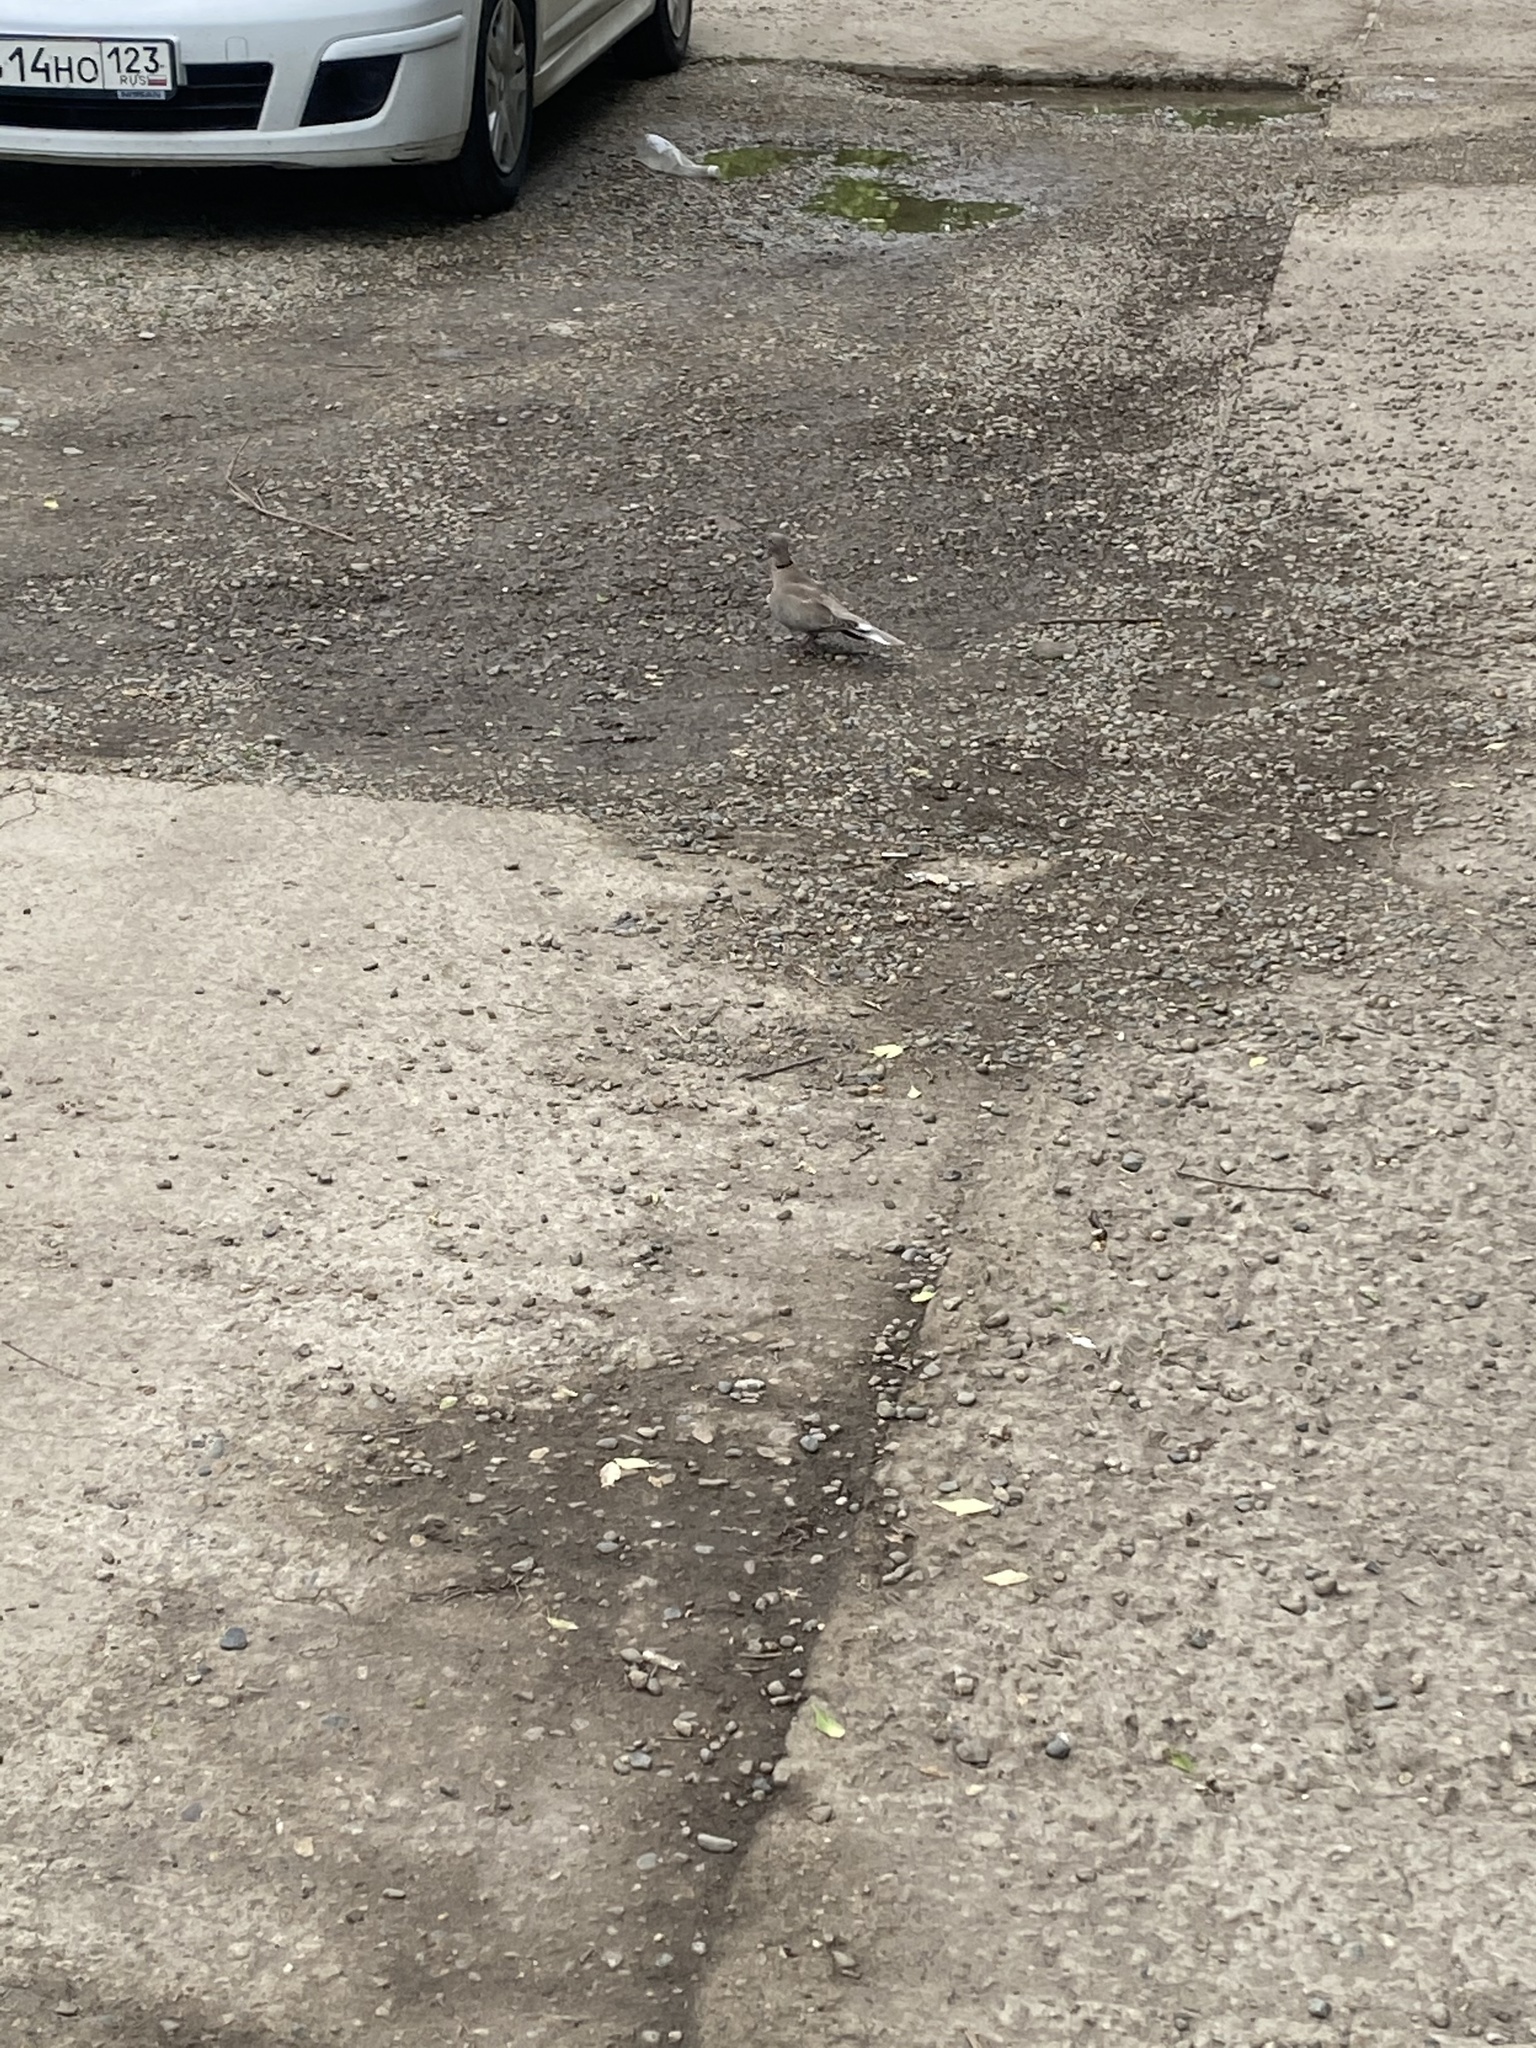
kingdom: Animalia
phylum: Chordata
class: Aves
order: Columbiformes
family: Columbidae
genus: Streptopelia
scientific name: Streptopelia decaocto
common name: Eurasian collared dove
